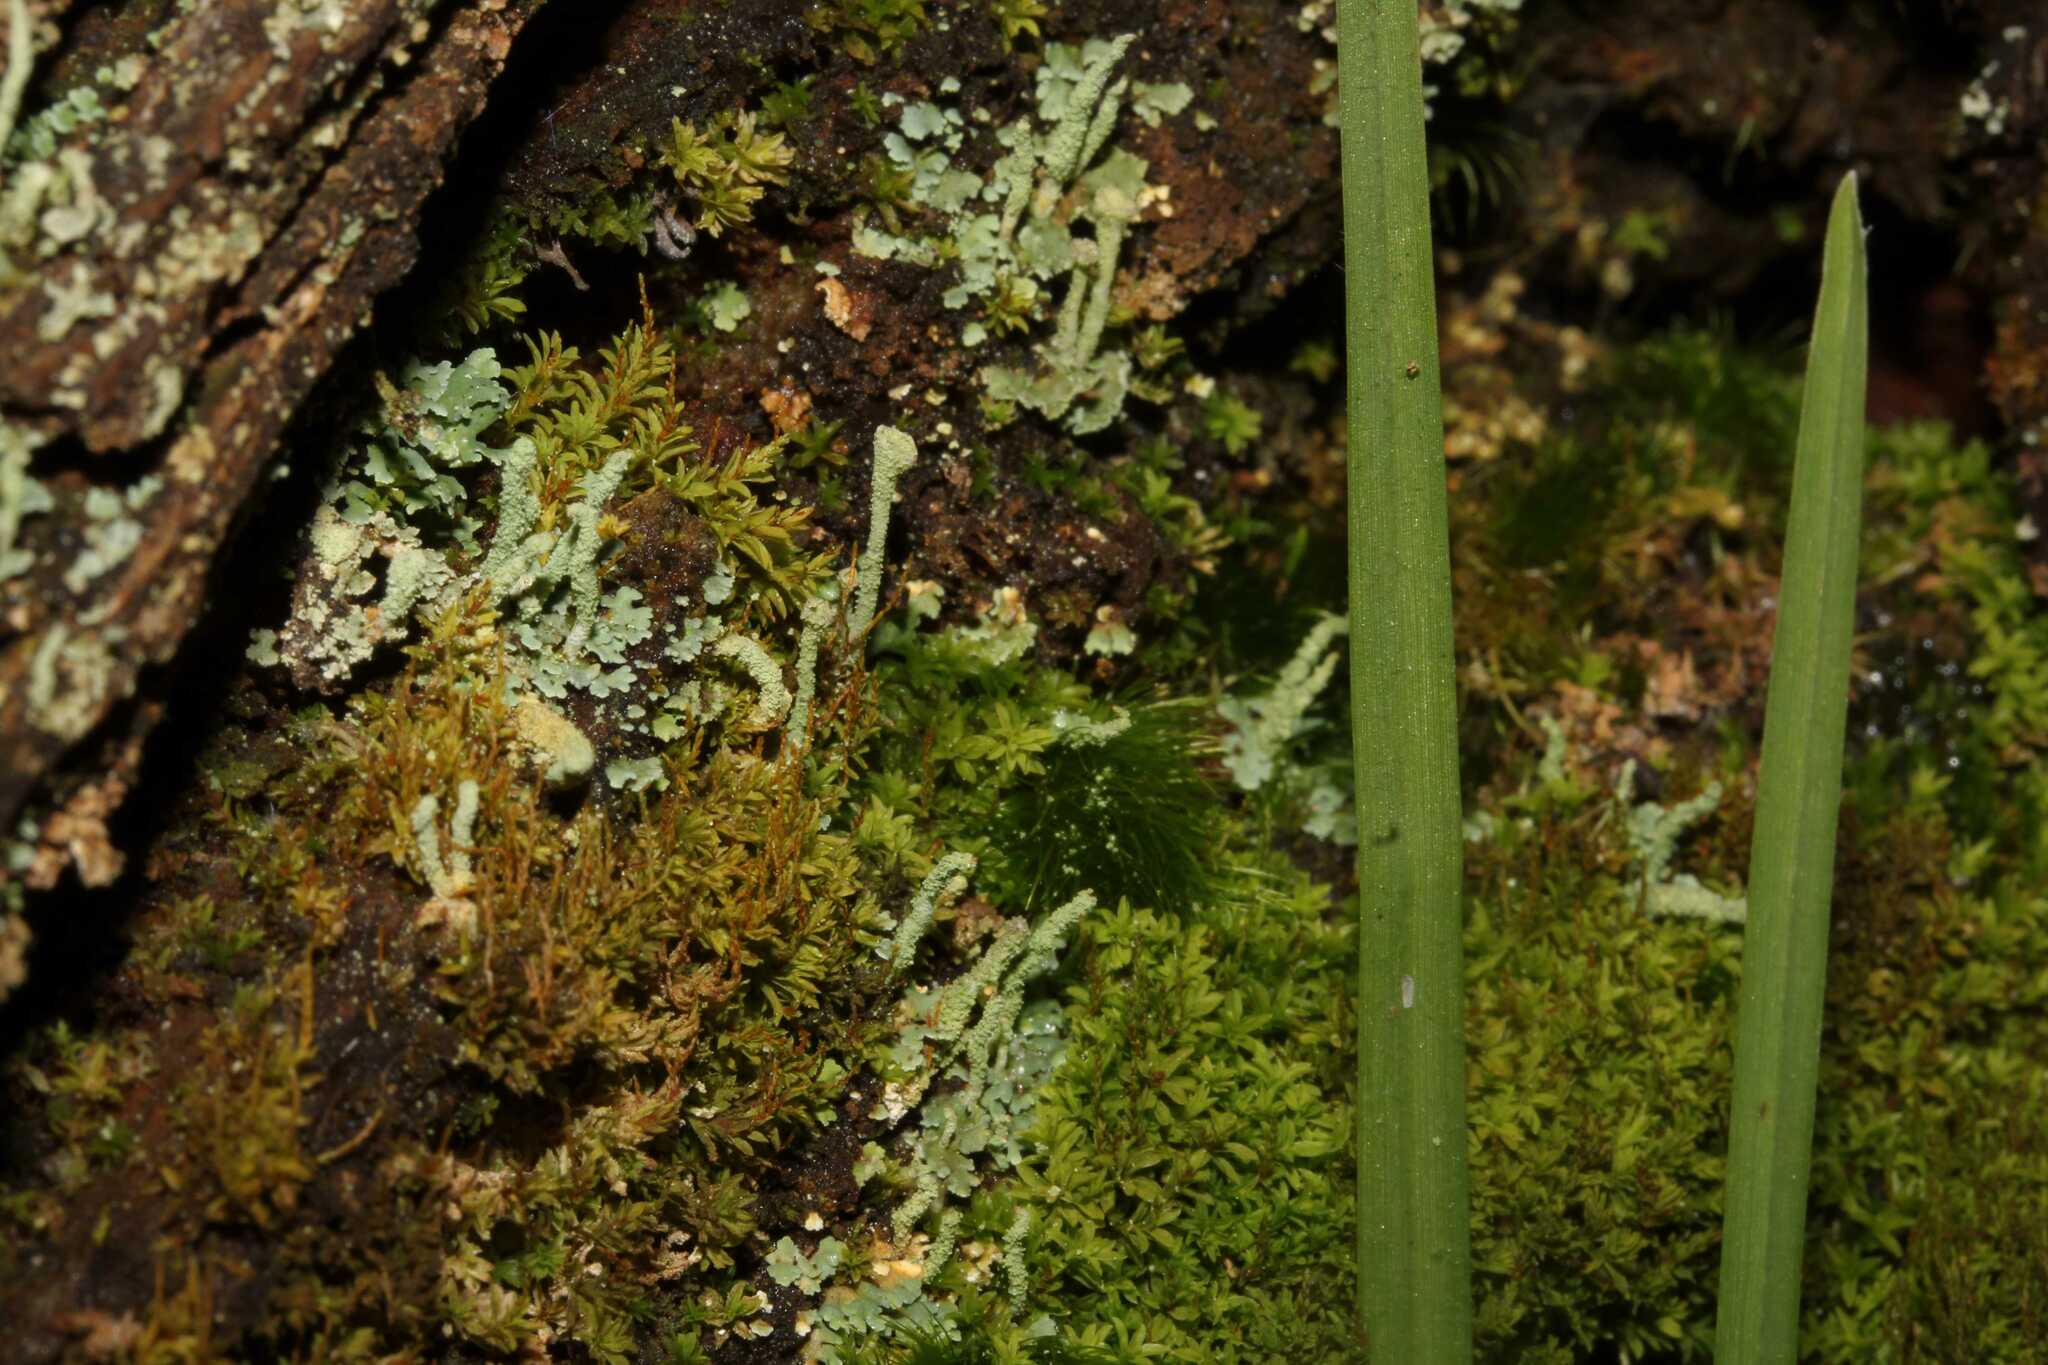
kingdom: Fungi
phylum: Ascomycota
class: Lecanoromycetes
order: Lecanorales
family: Cladoniaceae
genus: Cladonia
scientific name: Cladonia
